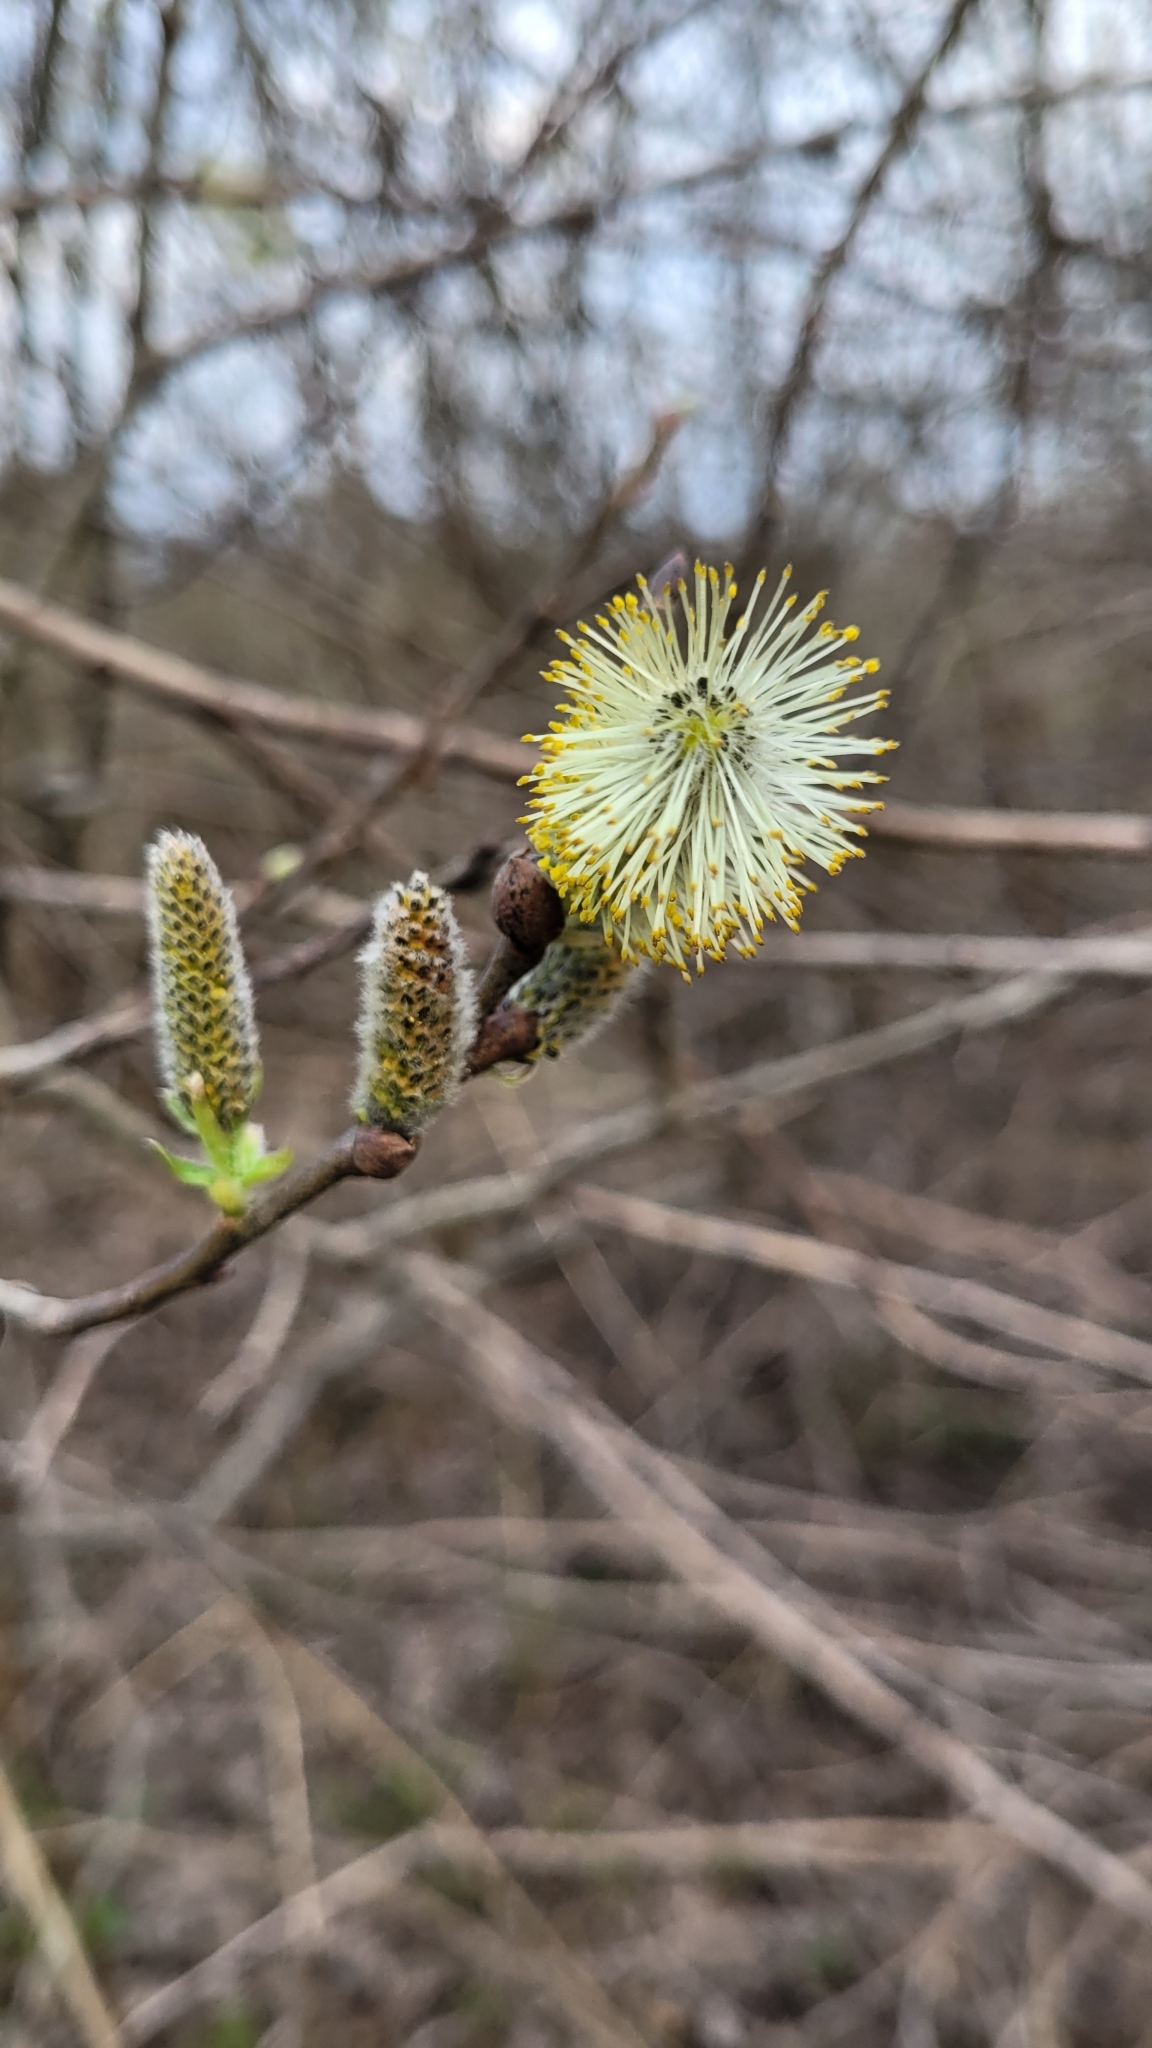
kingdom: Plantae
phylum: Tracheophyta
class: Magnoliopsida
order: Malpighiales
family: Salicaceae
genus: Salix
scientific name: Salix caprea
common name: Goat willow
